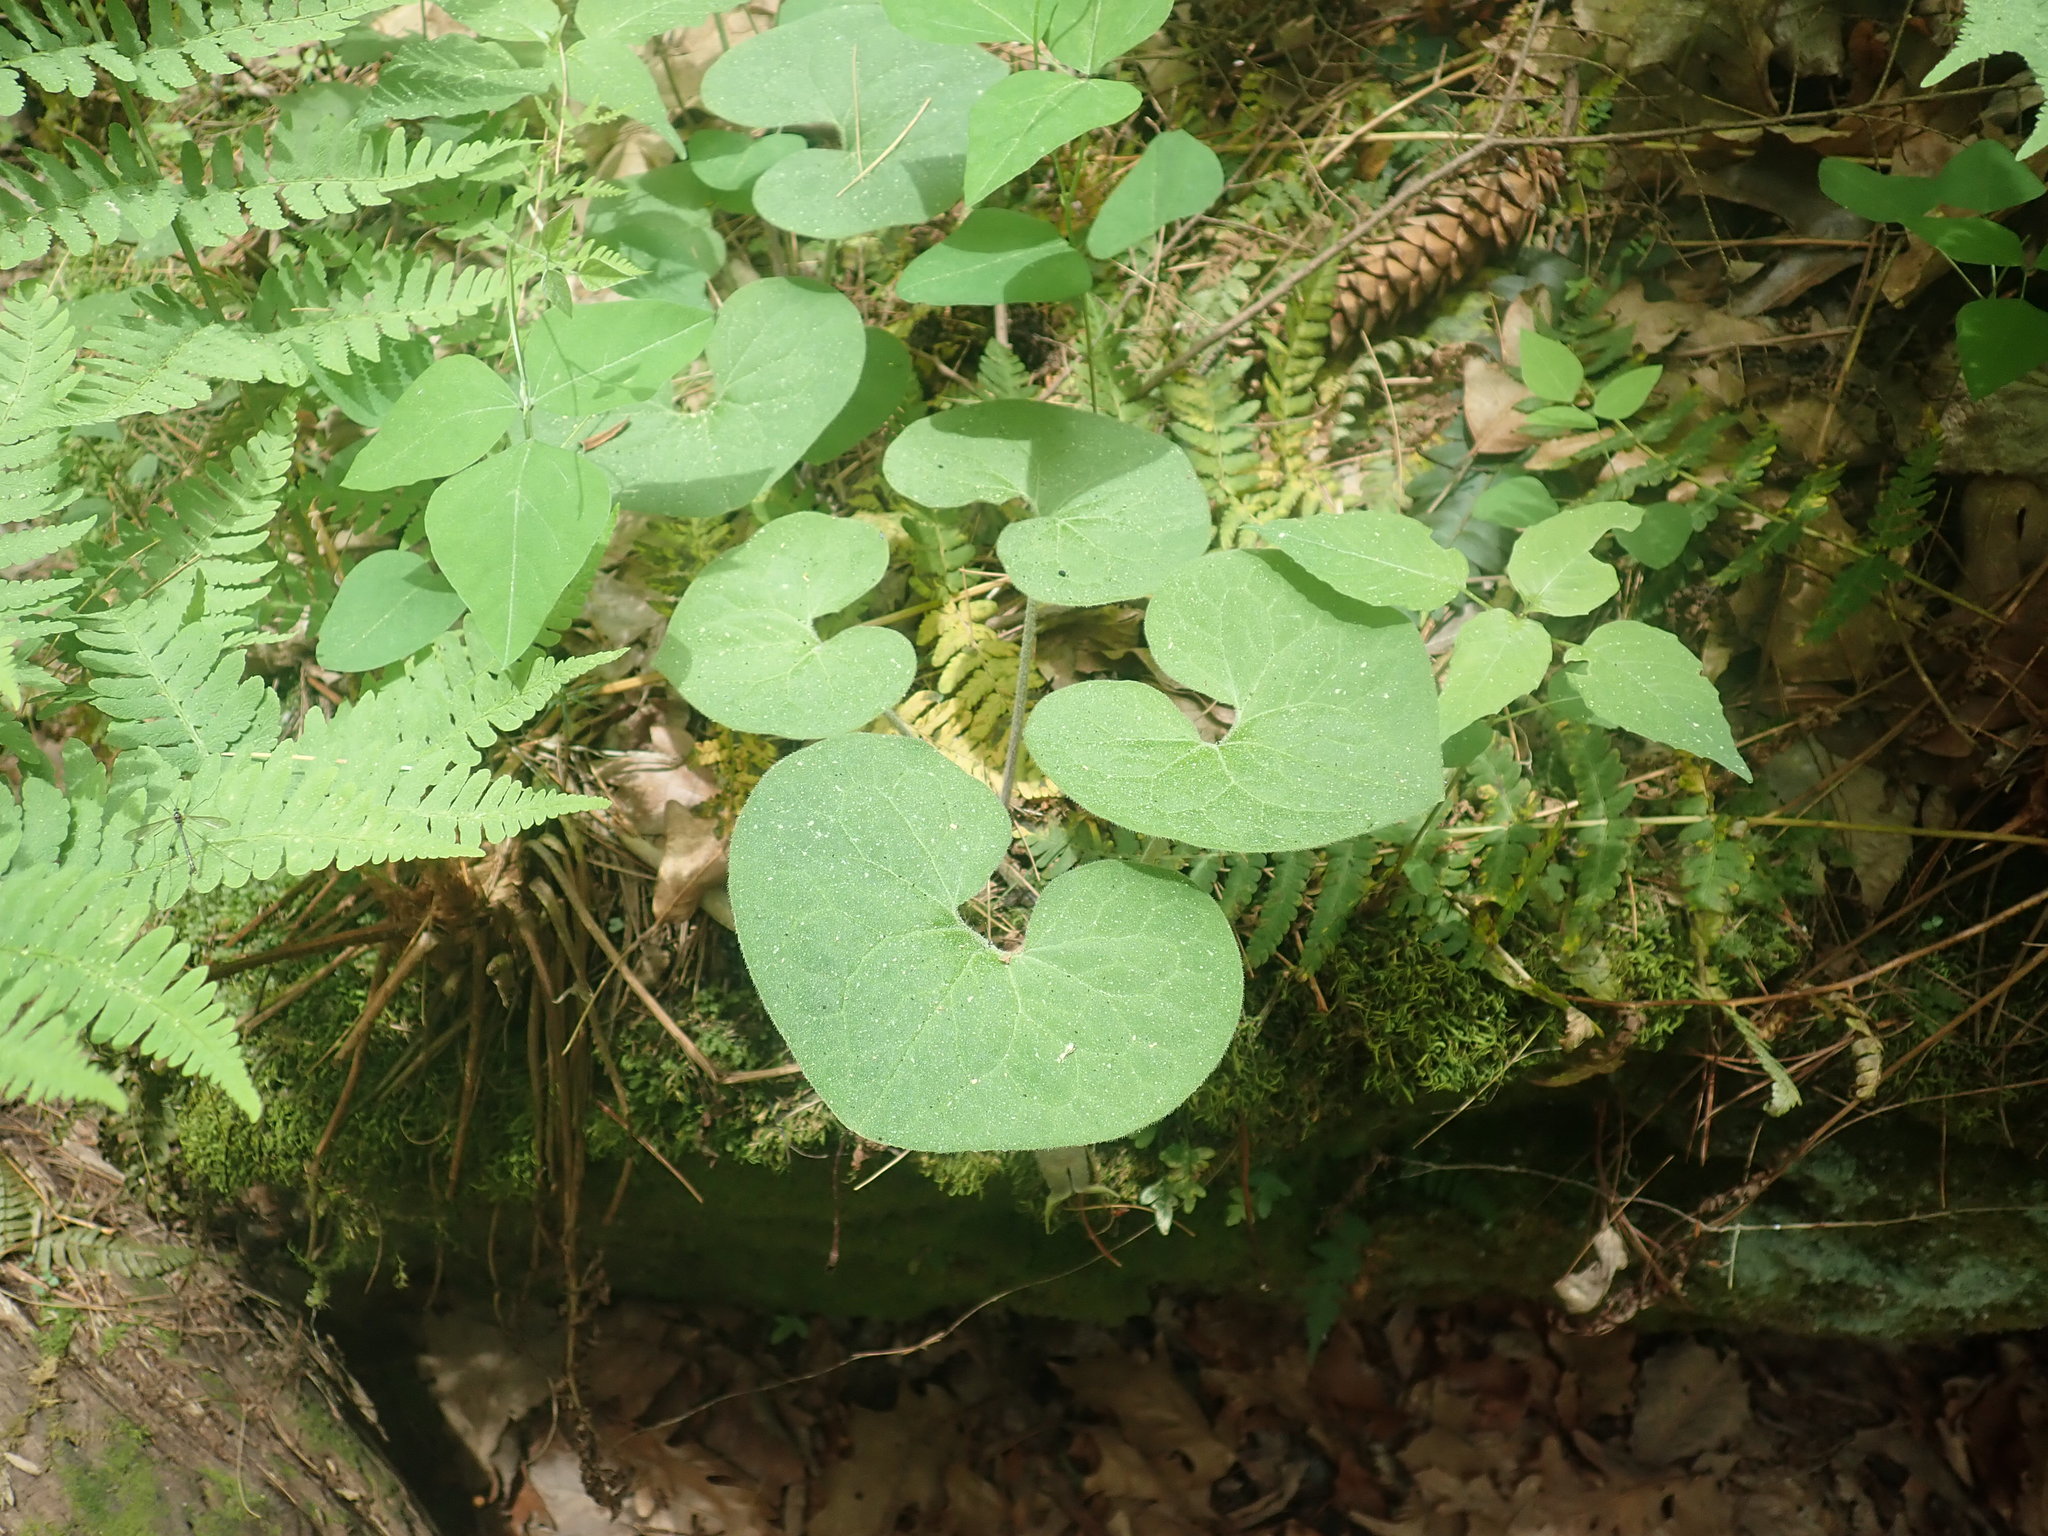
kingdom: Plantae
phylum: Tracheophyta
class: Magnoliopsida
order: Piperales
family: Aristolochiaceae
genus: Asarum
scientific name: Asarum canadense
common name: Wild ginger
